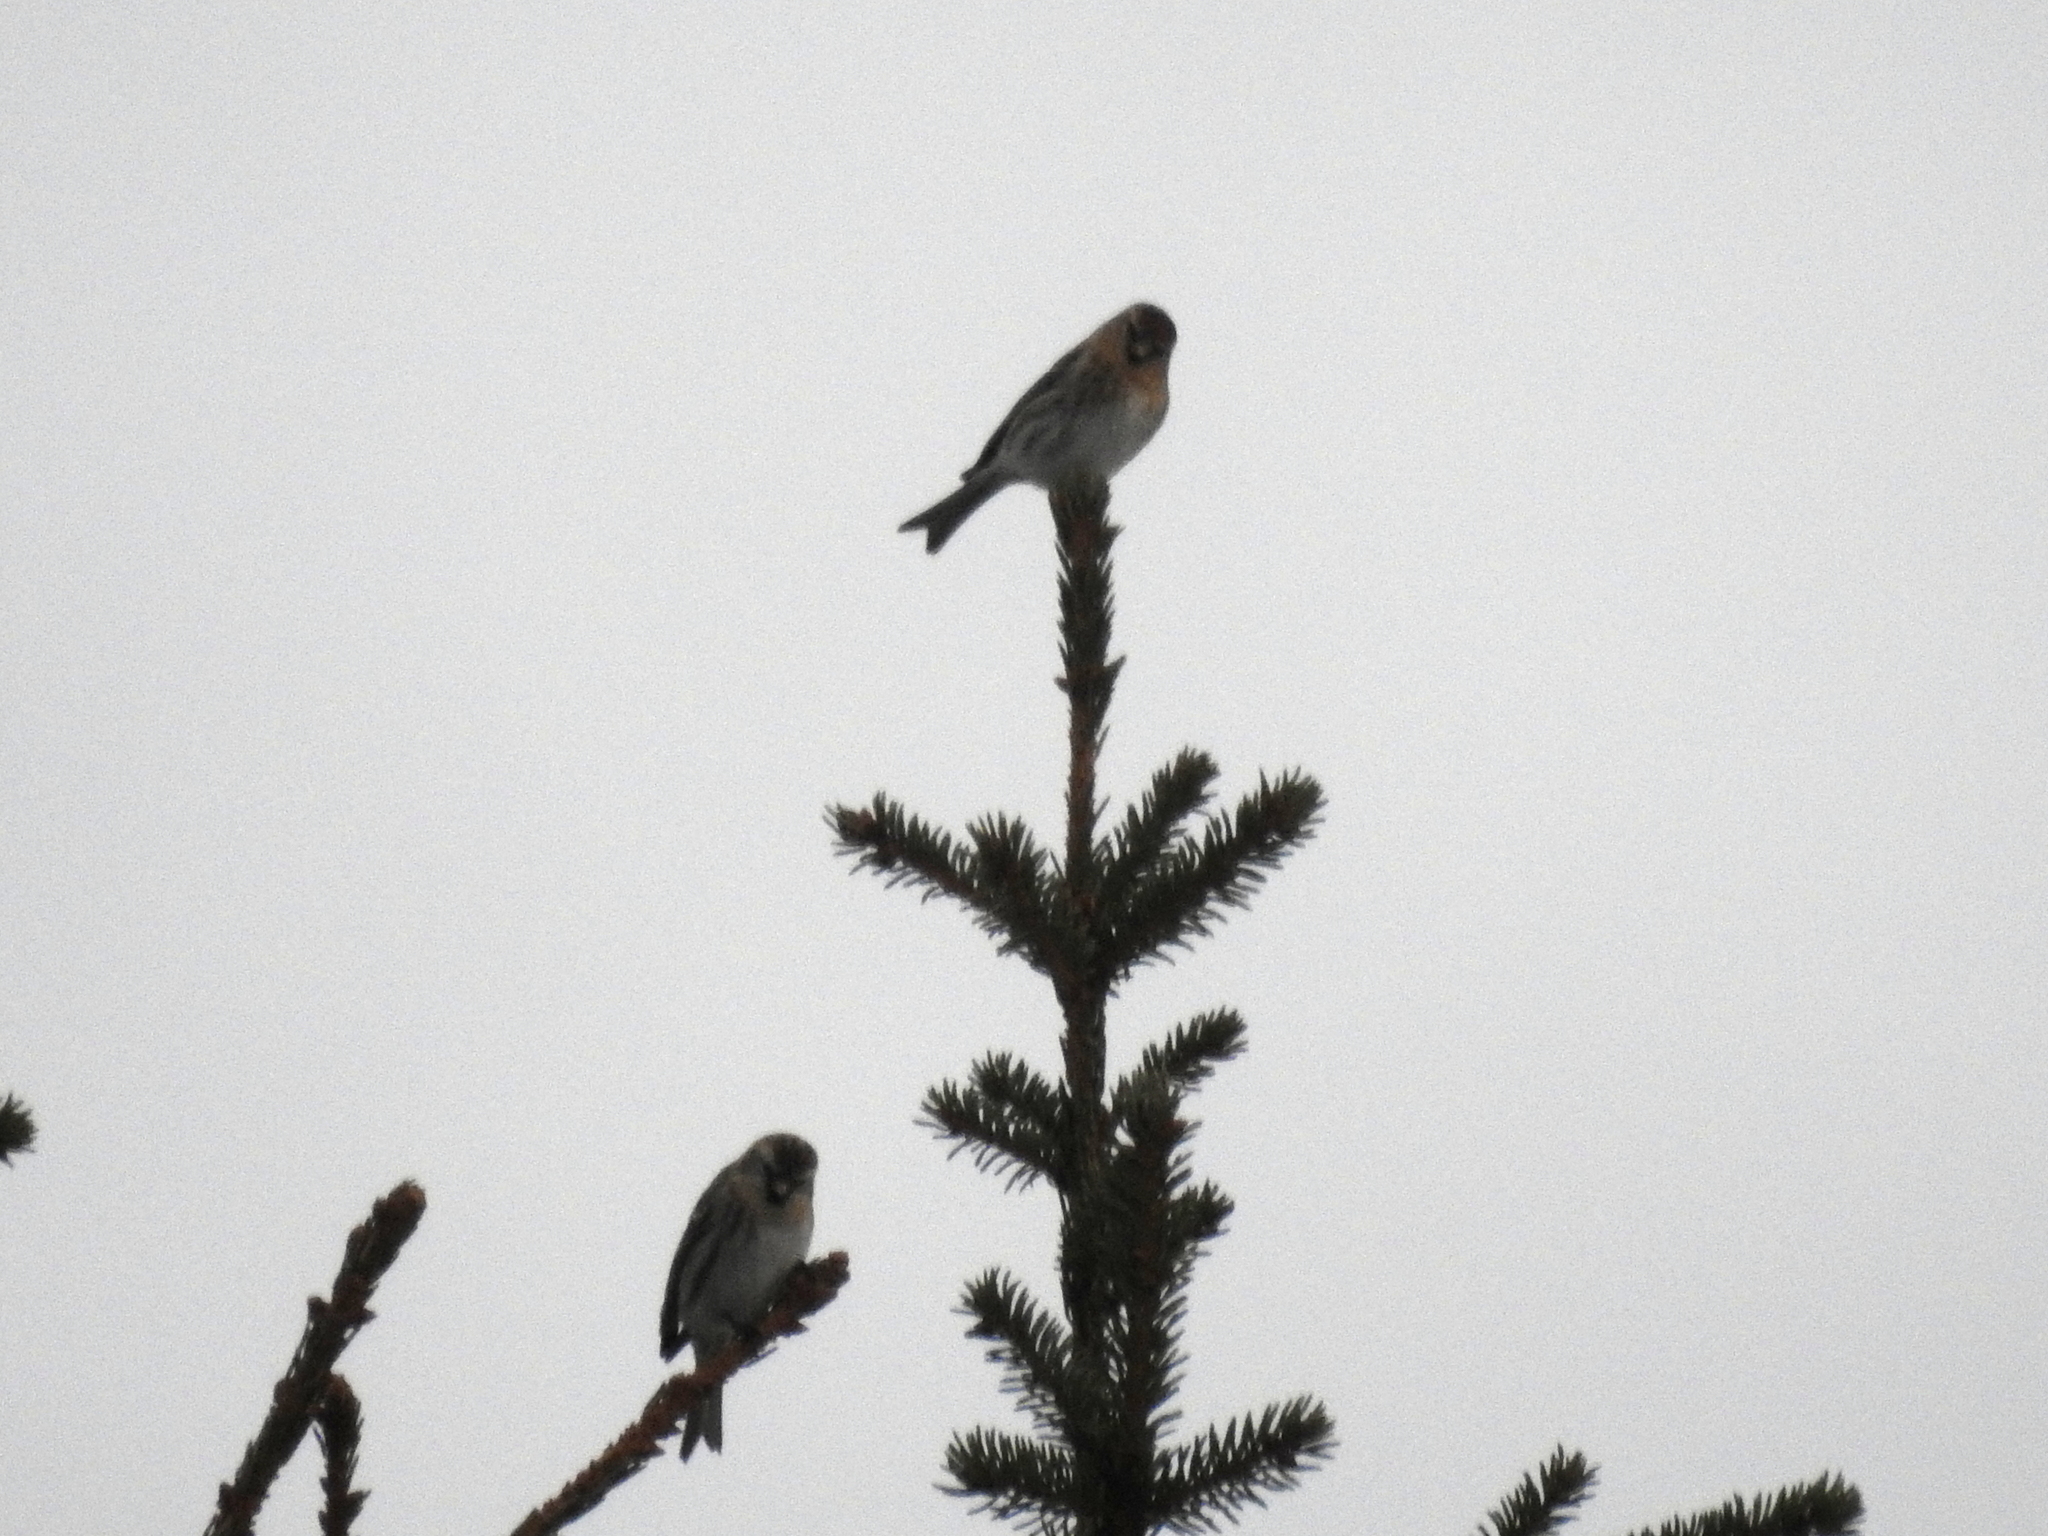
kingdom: Animalia
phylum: Chordata
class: Aves
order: Passeriformes
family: Fringillidae
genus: Acanthis
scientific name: Acanthis flammea
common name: Common redpoll
